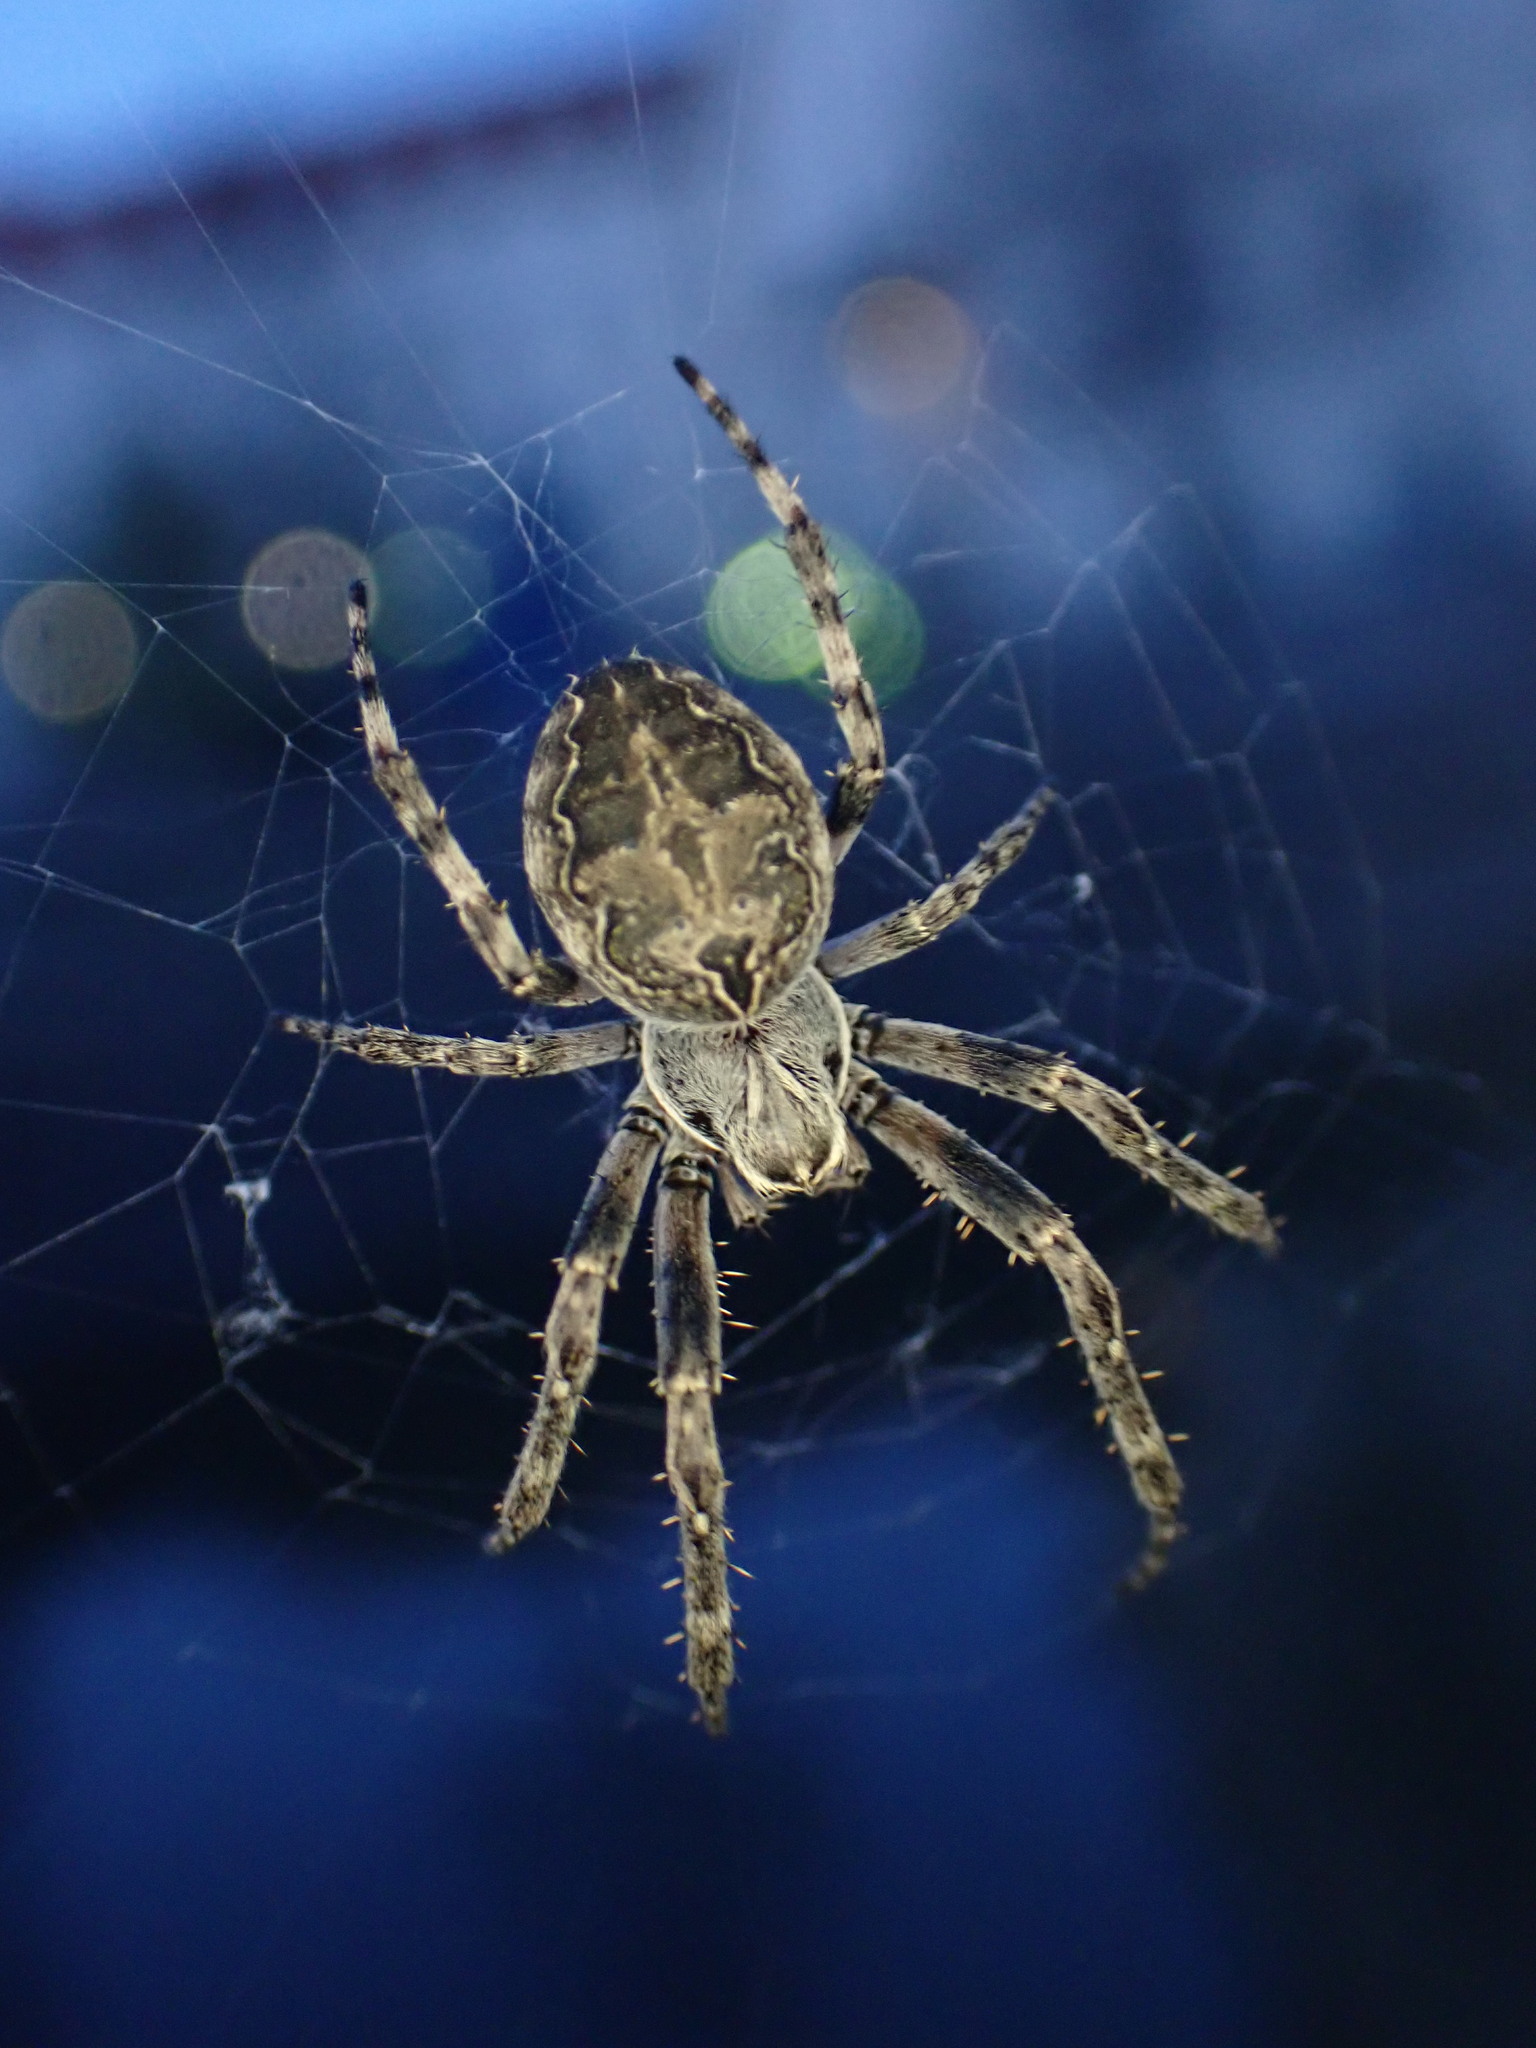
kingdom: Animalia
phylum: Arthropoda
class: Arachnida
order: Araneae
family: Araneidae
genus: Larinioides
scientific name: Larinioides sclopetarius
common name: Bridge orbweaver
